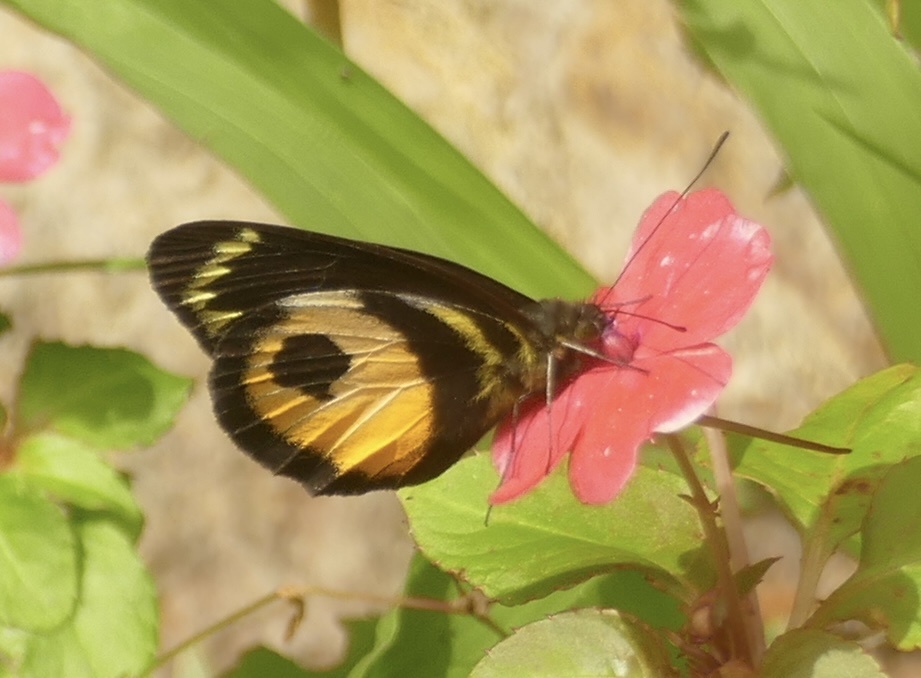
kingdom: Animalia
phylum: Arthropoda
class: Insecta
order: Lepidoptera
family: Pieridae
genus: Delias
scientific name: Delias albertisi
